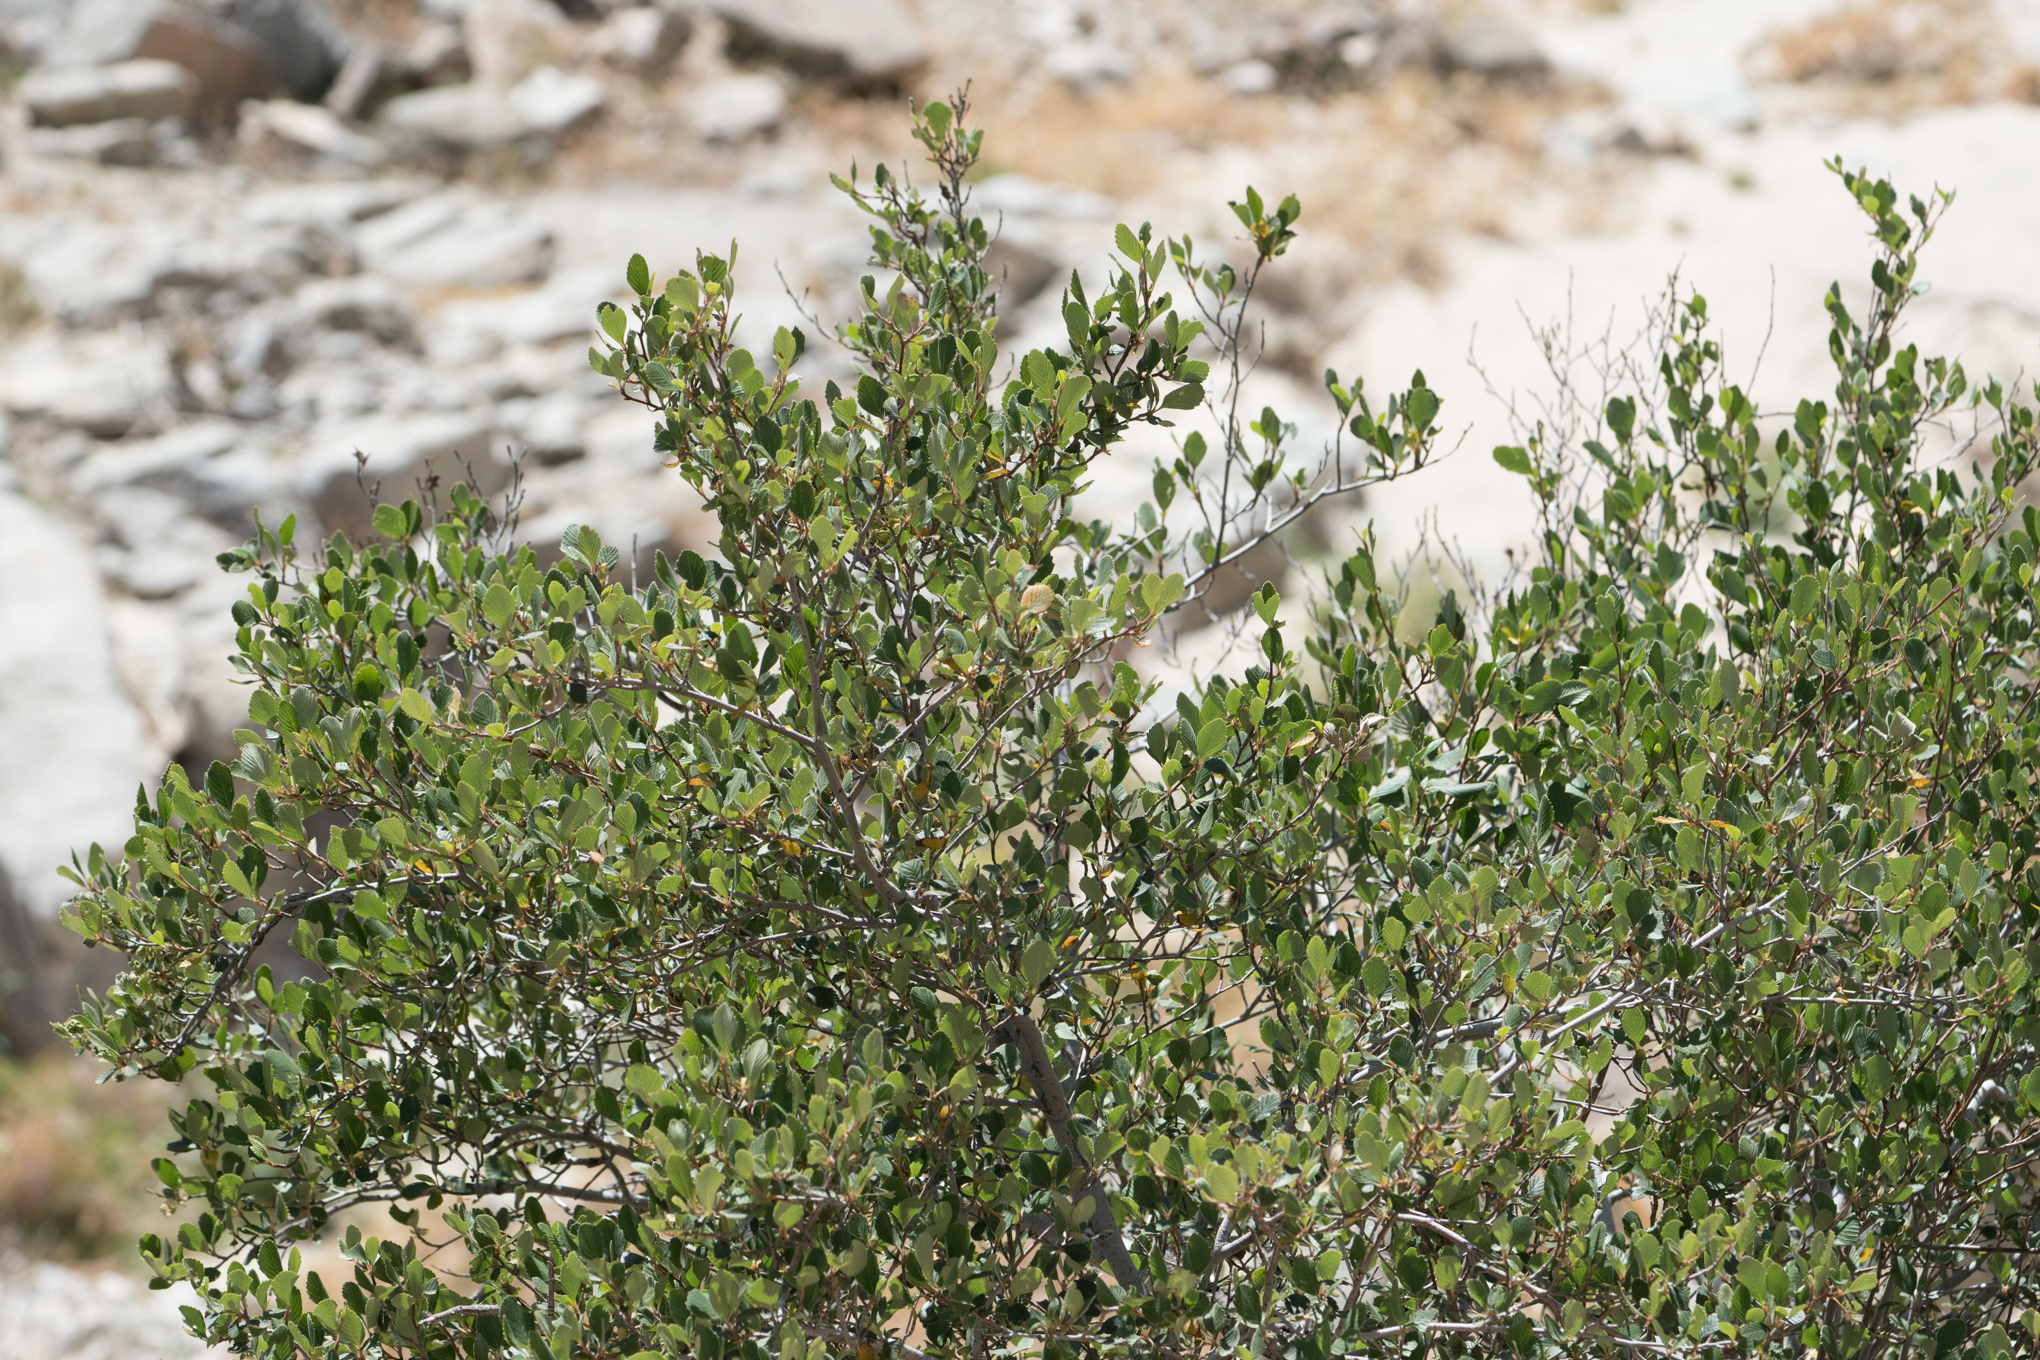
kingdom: Plantae
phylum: Tracheophyta
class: Magnoliopsida
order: Rosales
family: Rosaceae
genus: Cercocarpus
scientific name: Cercocarpus betuloides
